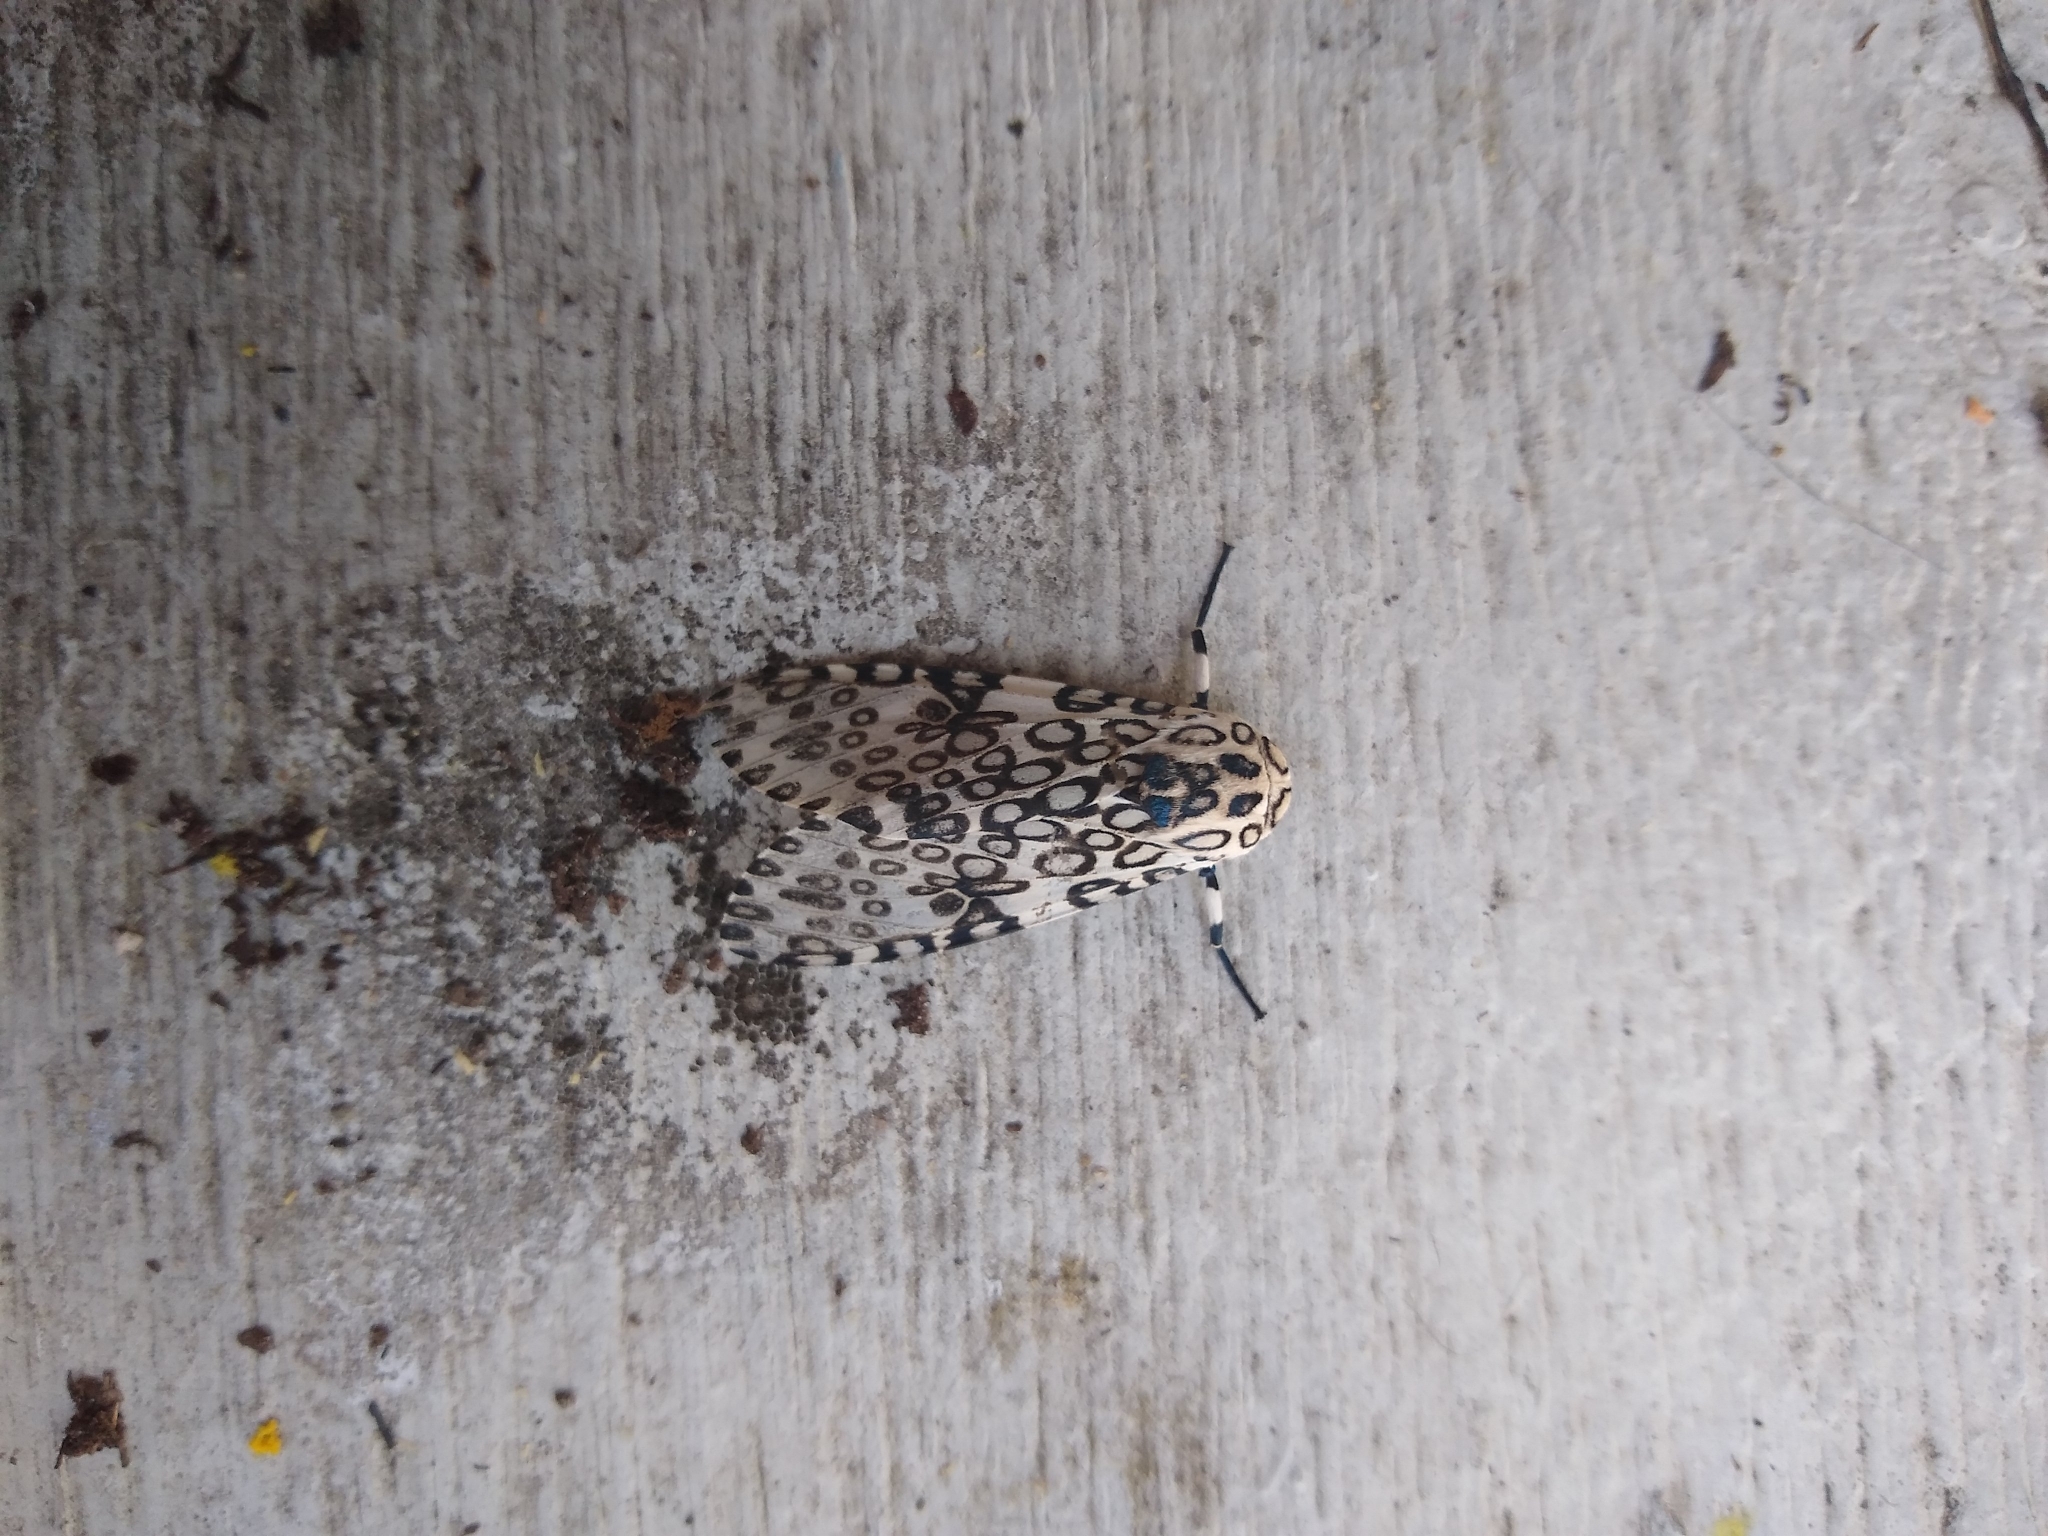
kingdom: Animalia
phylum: Arthropoda
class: Insecta
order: Lepidoptera
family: Erebidae
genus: Hypercompe
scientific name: Hypercompe scribonia
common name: Giant leopard moth
